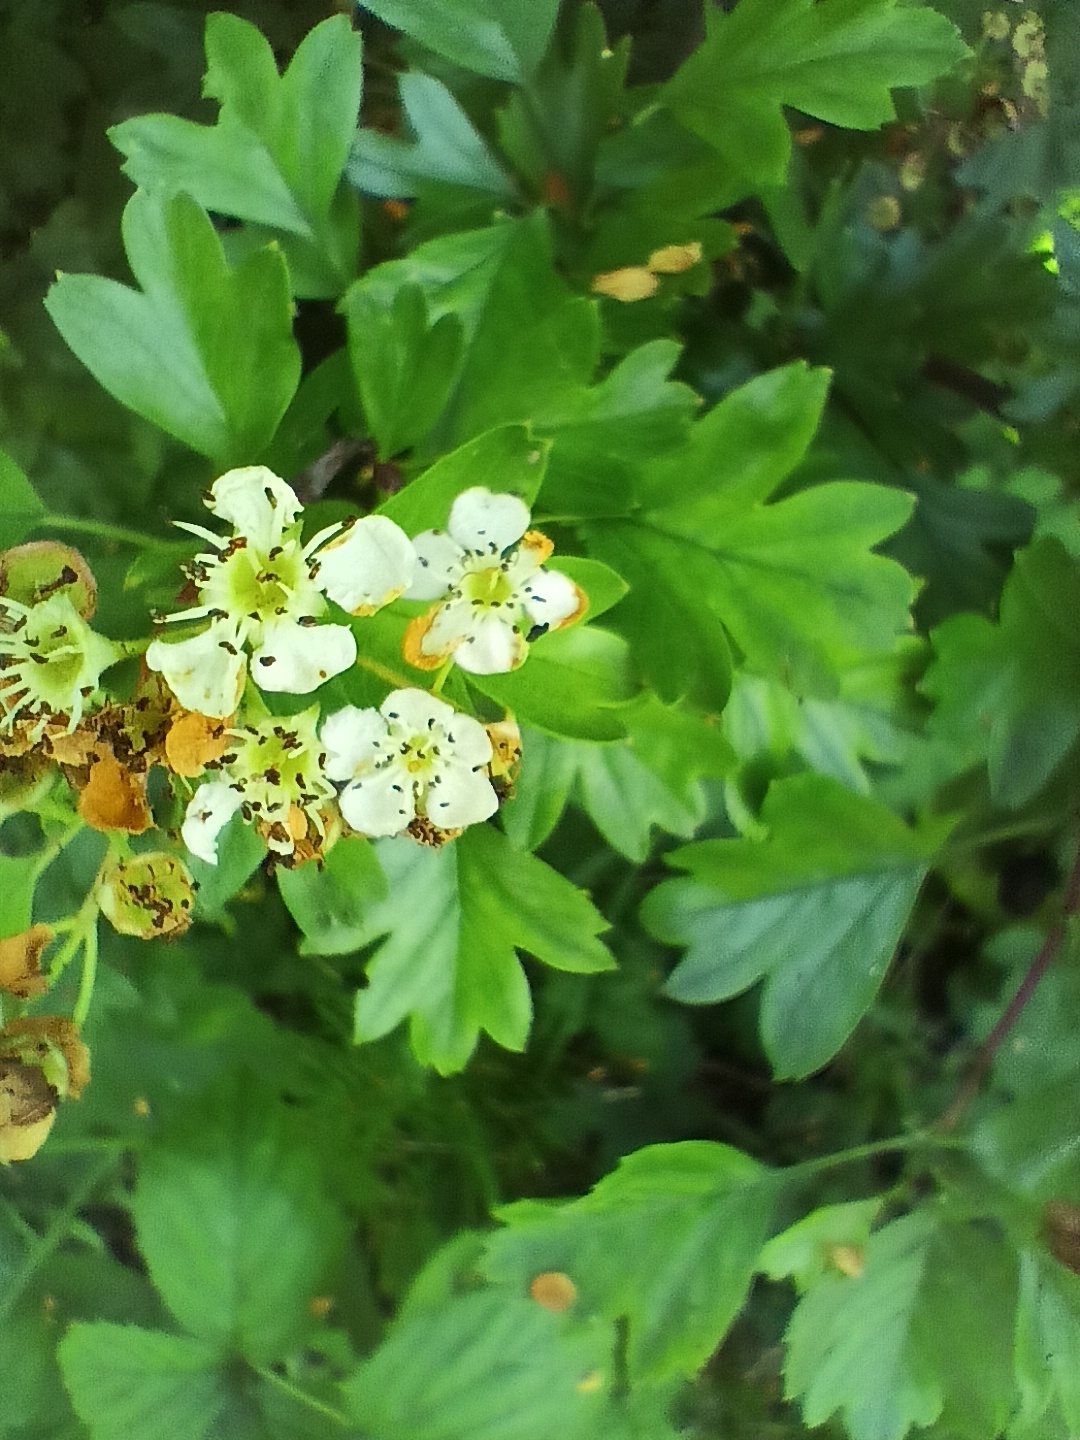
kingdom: Plantae
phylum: Tracheophyta
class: Magnoliopsida
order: Rosales
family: Rosaceae
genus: Crataegus
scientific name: Crataegus monogyna
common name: Hawthorn
